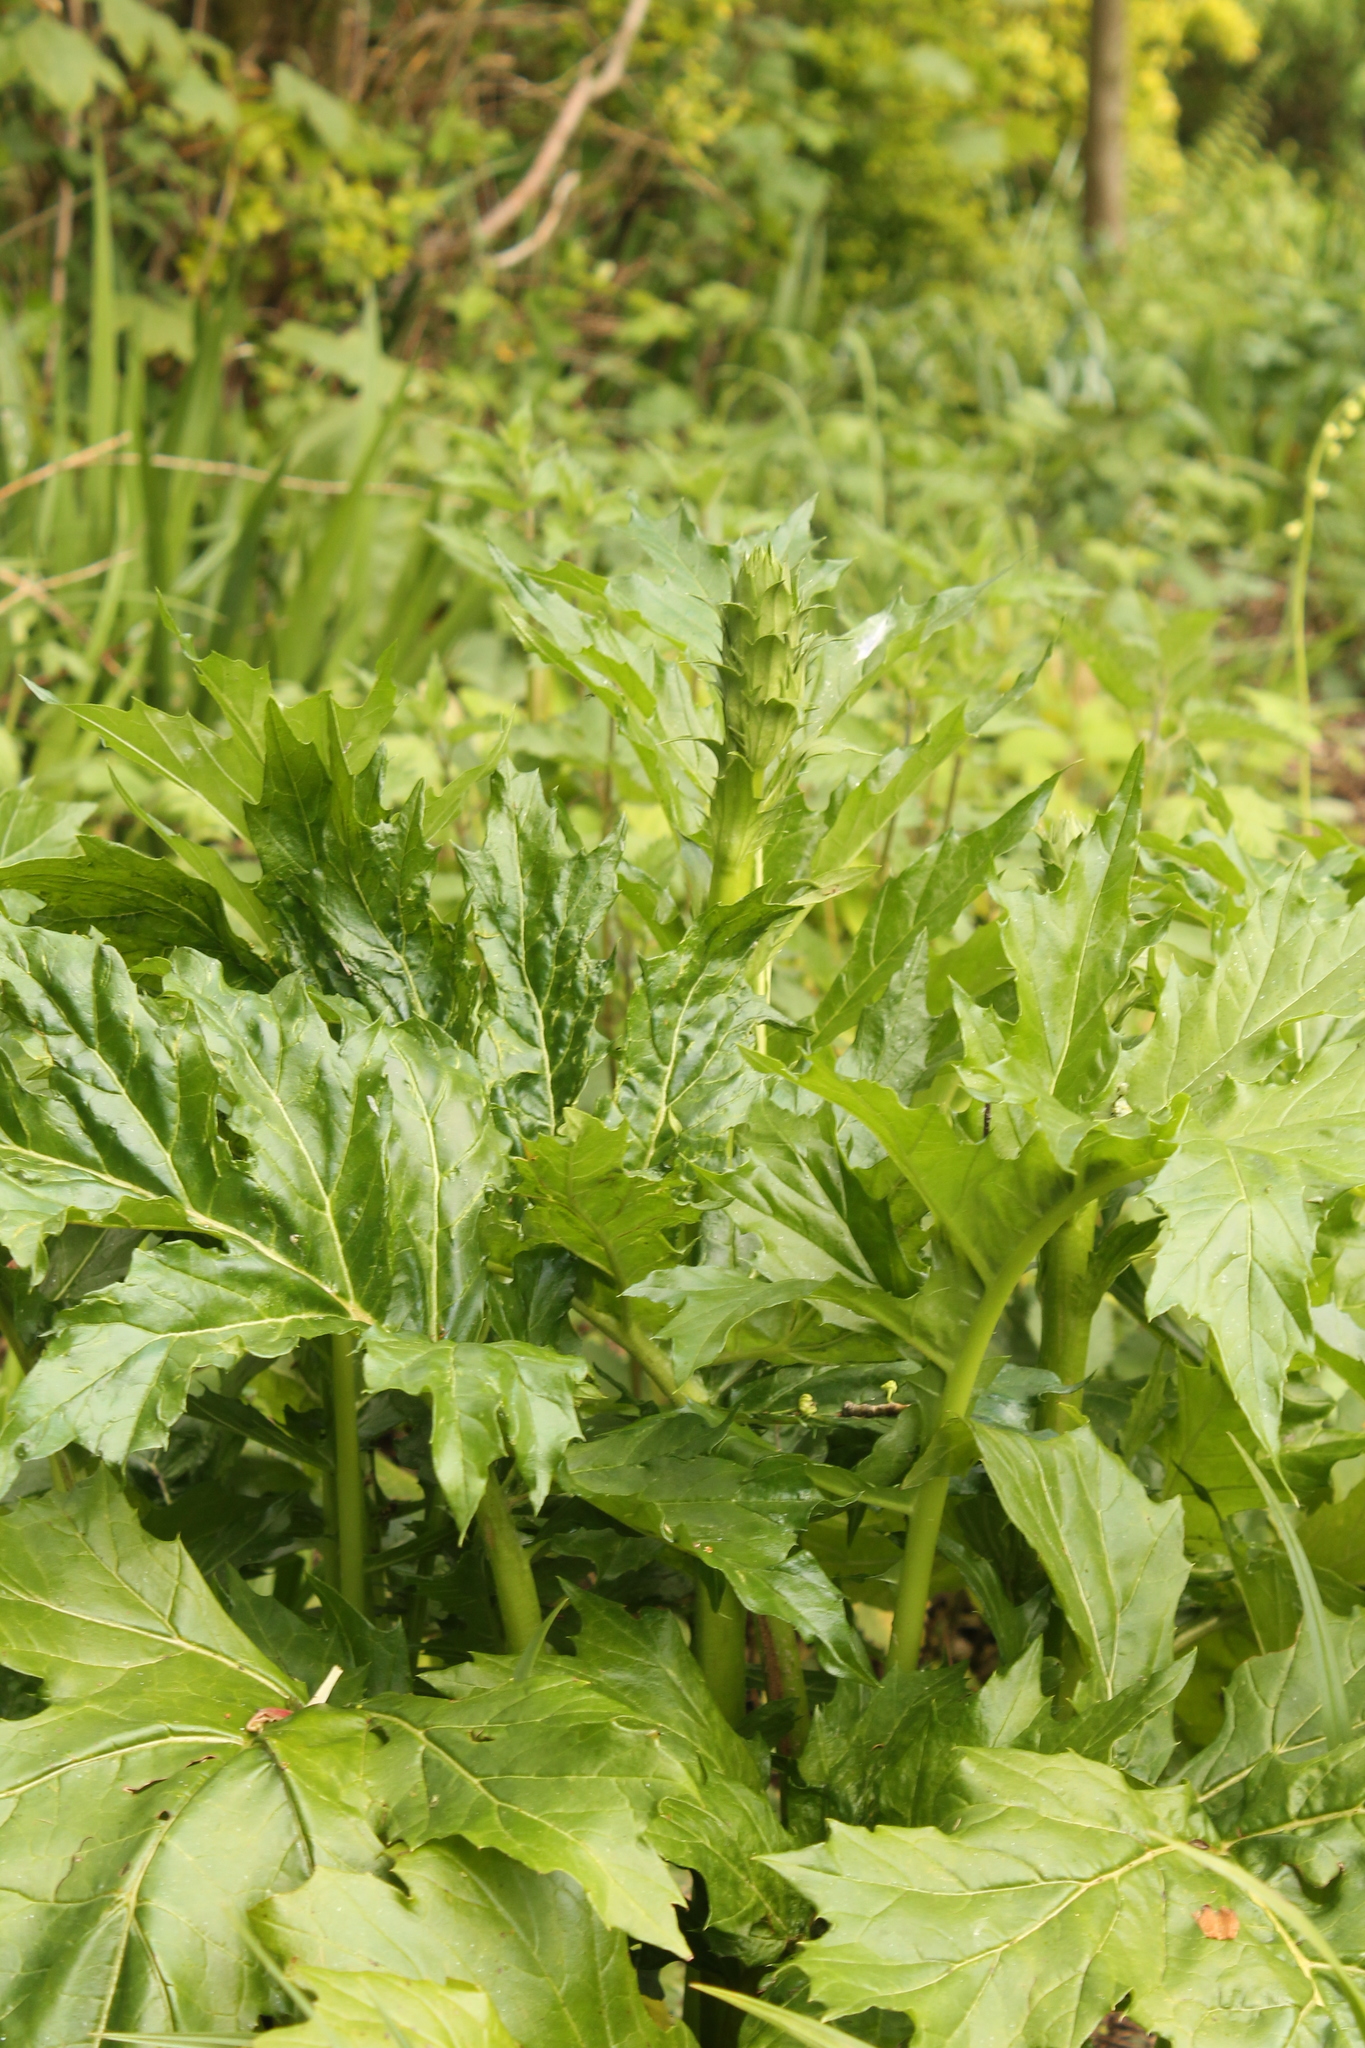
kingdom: Plantae
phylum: Tracheophyta
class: Magnoliopsida
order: Lamiales
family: Acanthaceae
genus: Acanthus
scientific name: Acanthus mollis
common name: Bear's-breech
